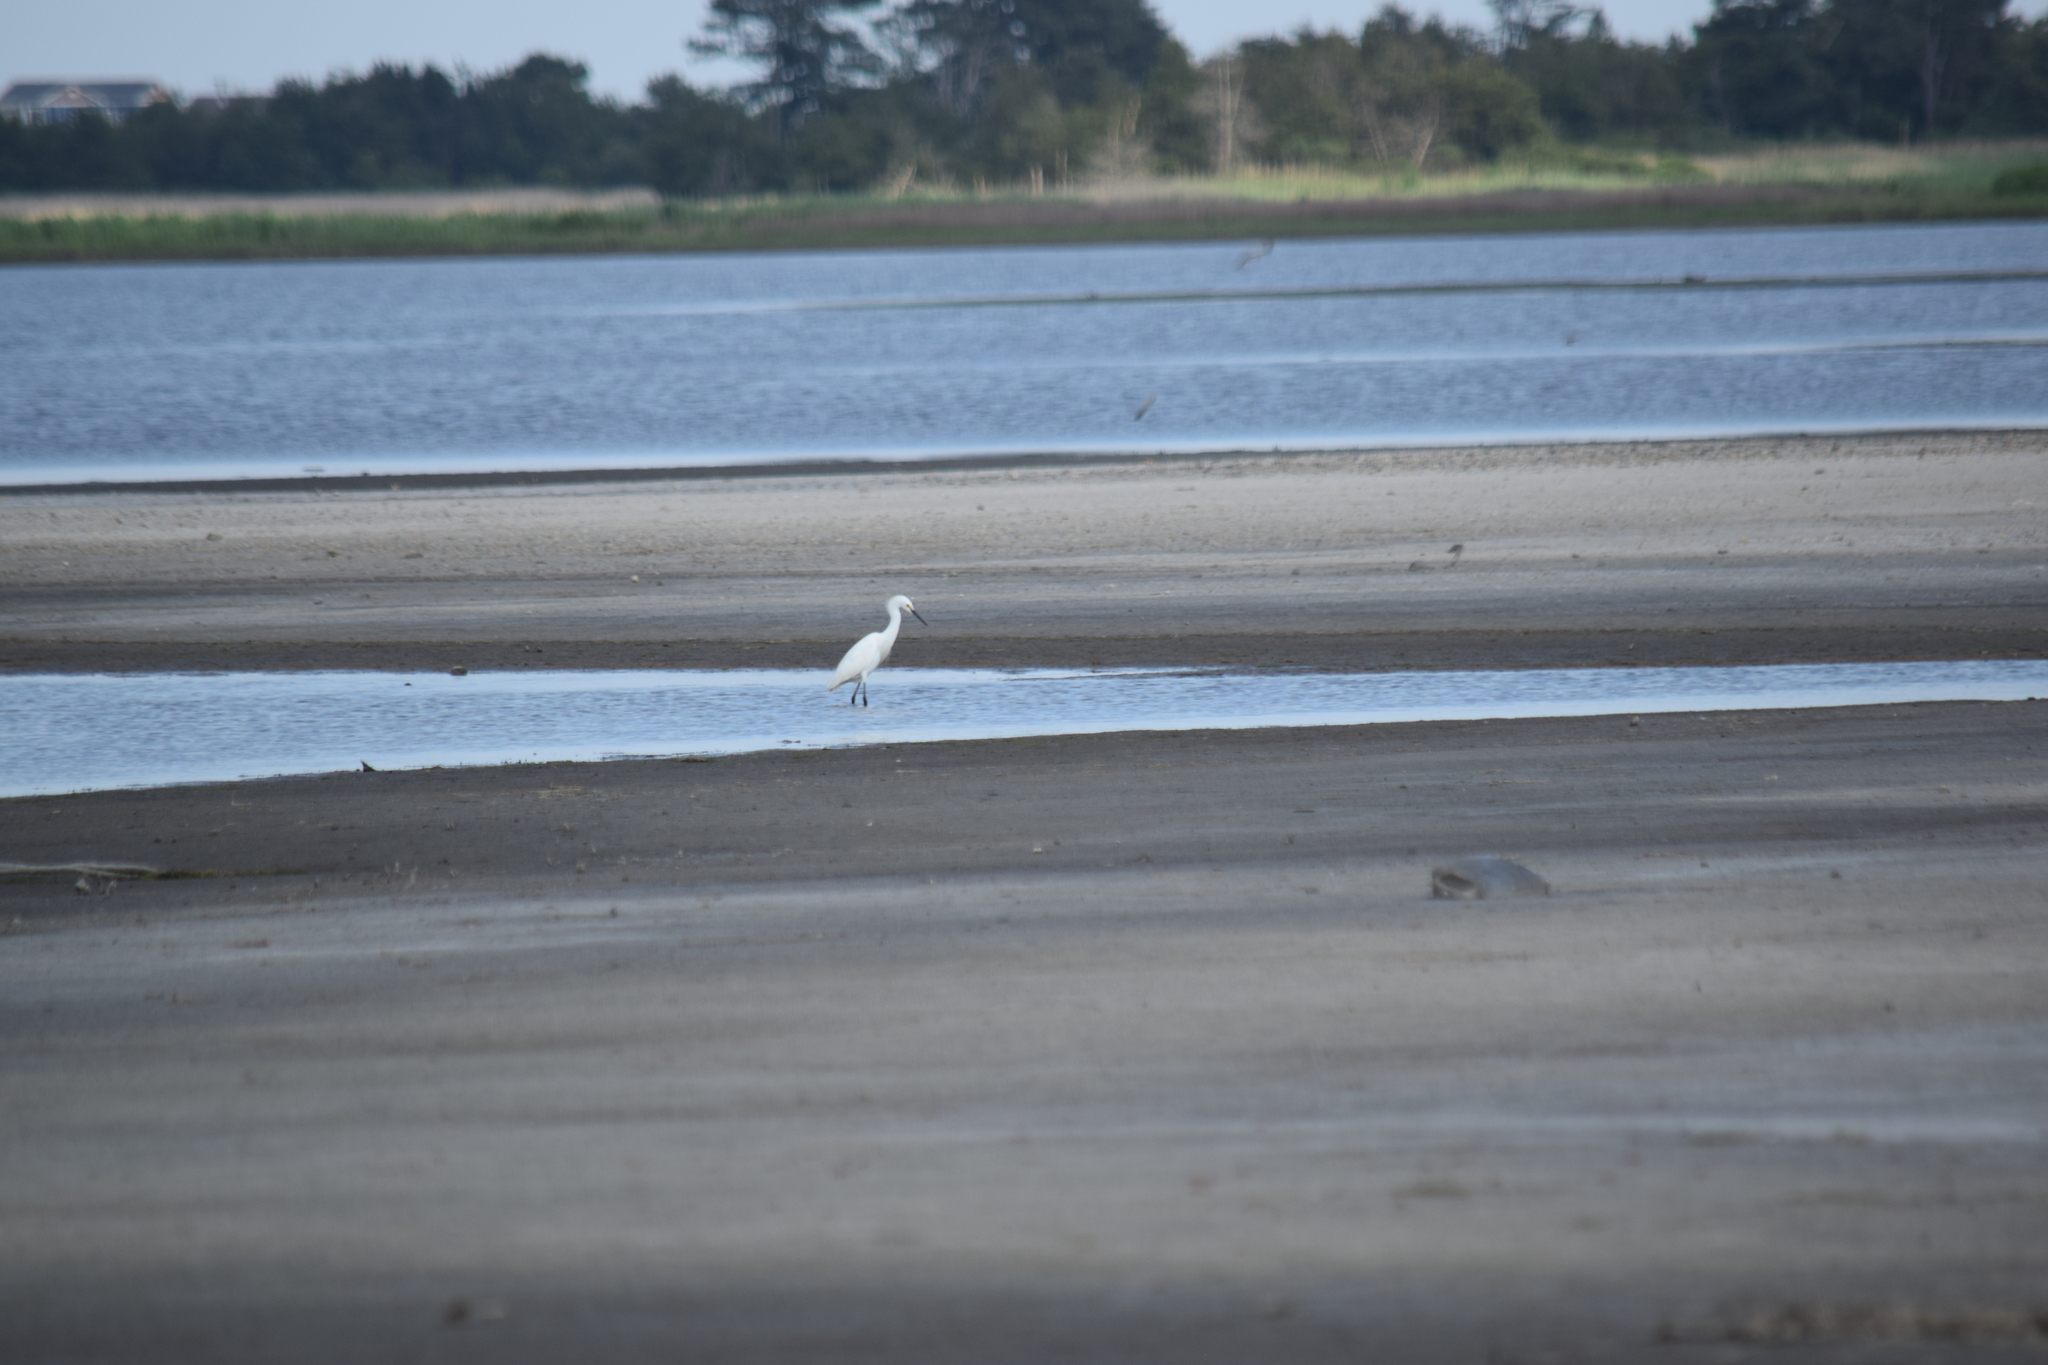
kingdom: Animalia
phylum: Chordata
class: Aves
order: Pelecaniformes
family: Ardeidae
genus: Egretta
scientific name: Egretta thula
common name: Snowy egret
